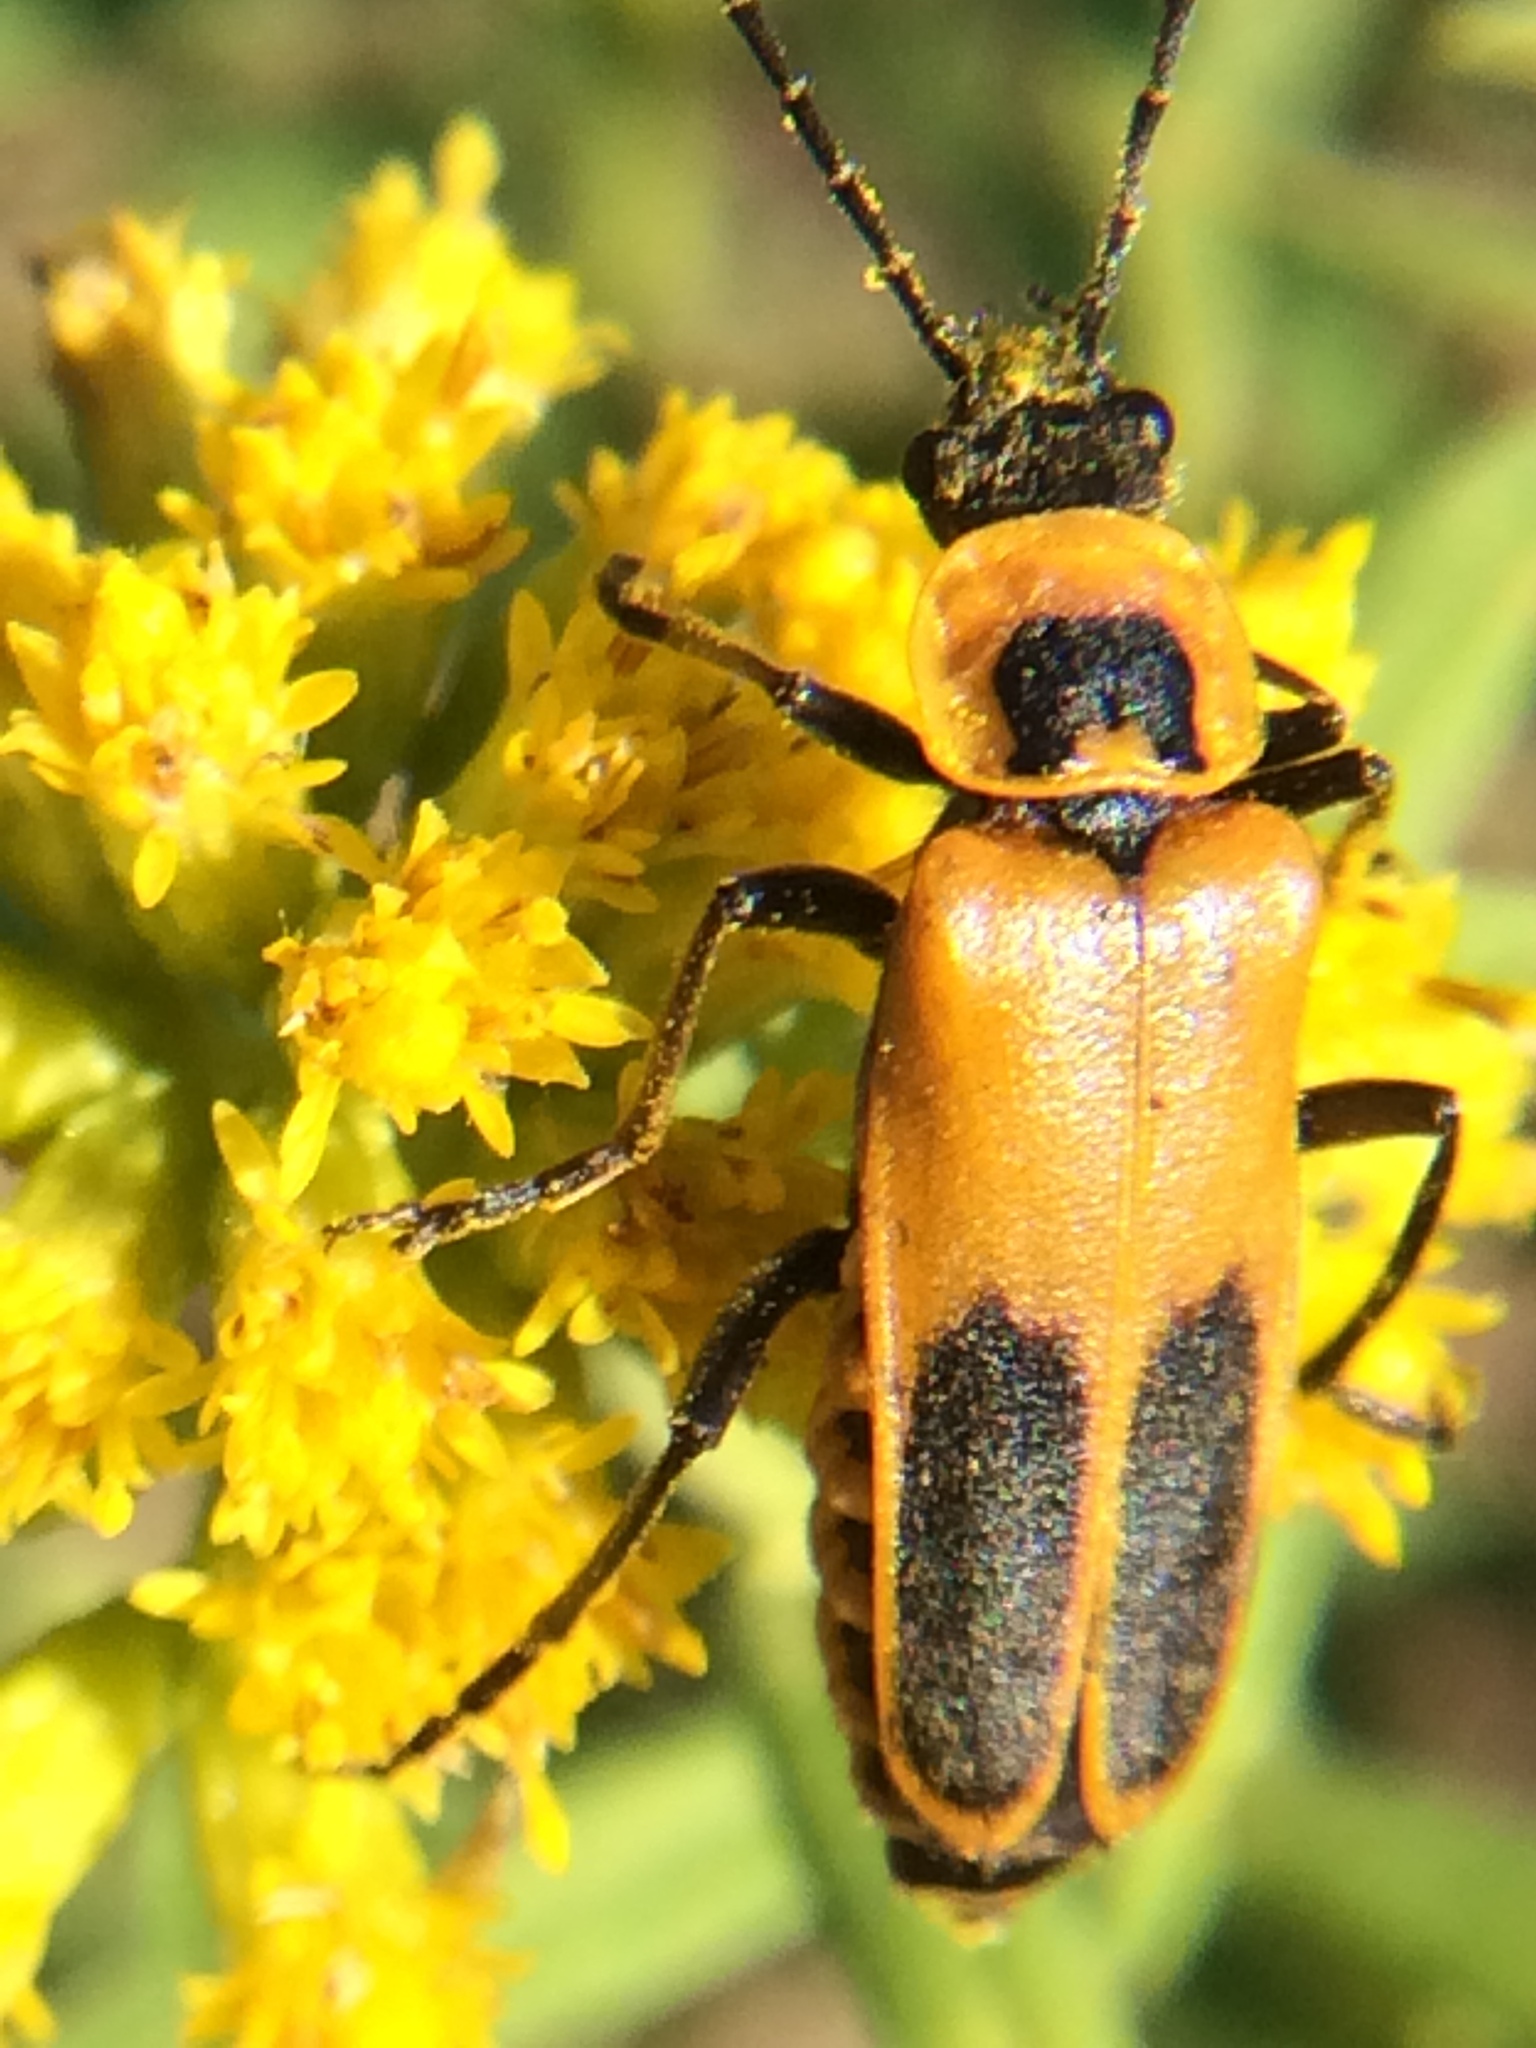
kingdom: Animalia
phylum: Arthropoda
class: Insecta
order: Coleoptera
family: Cantharidae
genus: Chauliognathus
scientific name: Chauliognathus pensylvanicus
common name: Goldenrod soldier beetle
